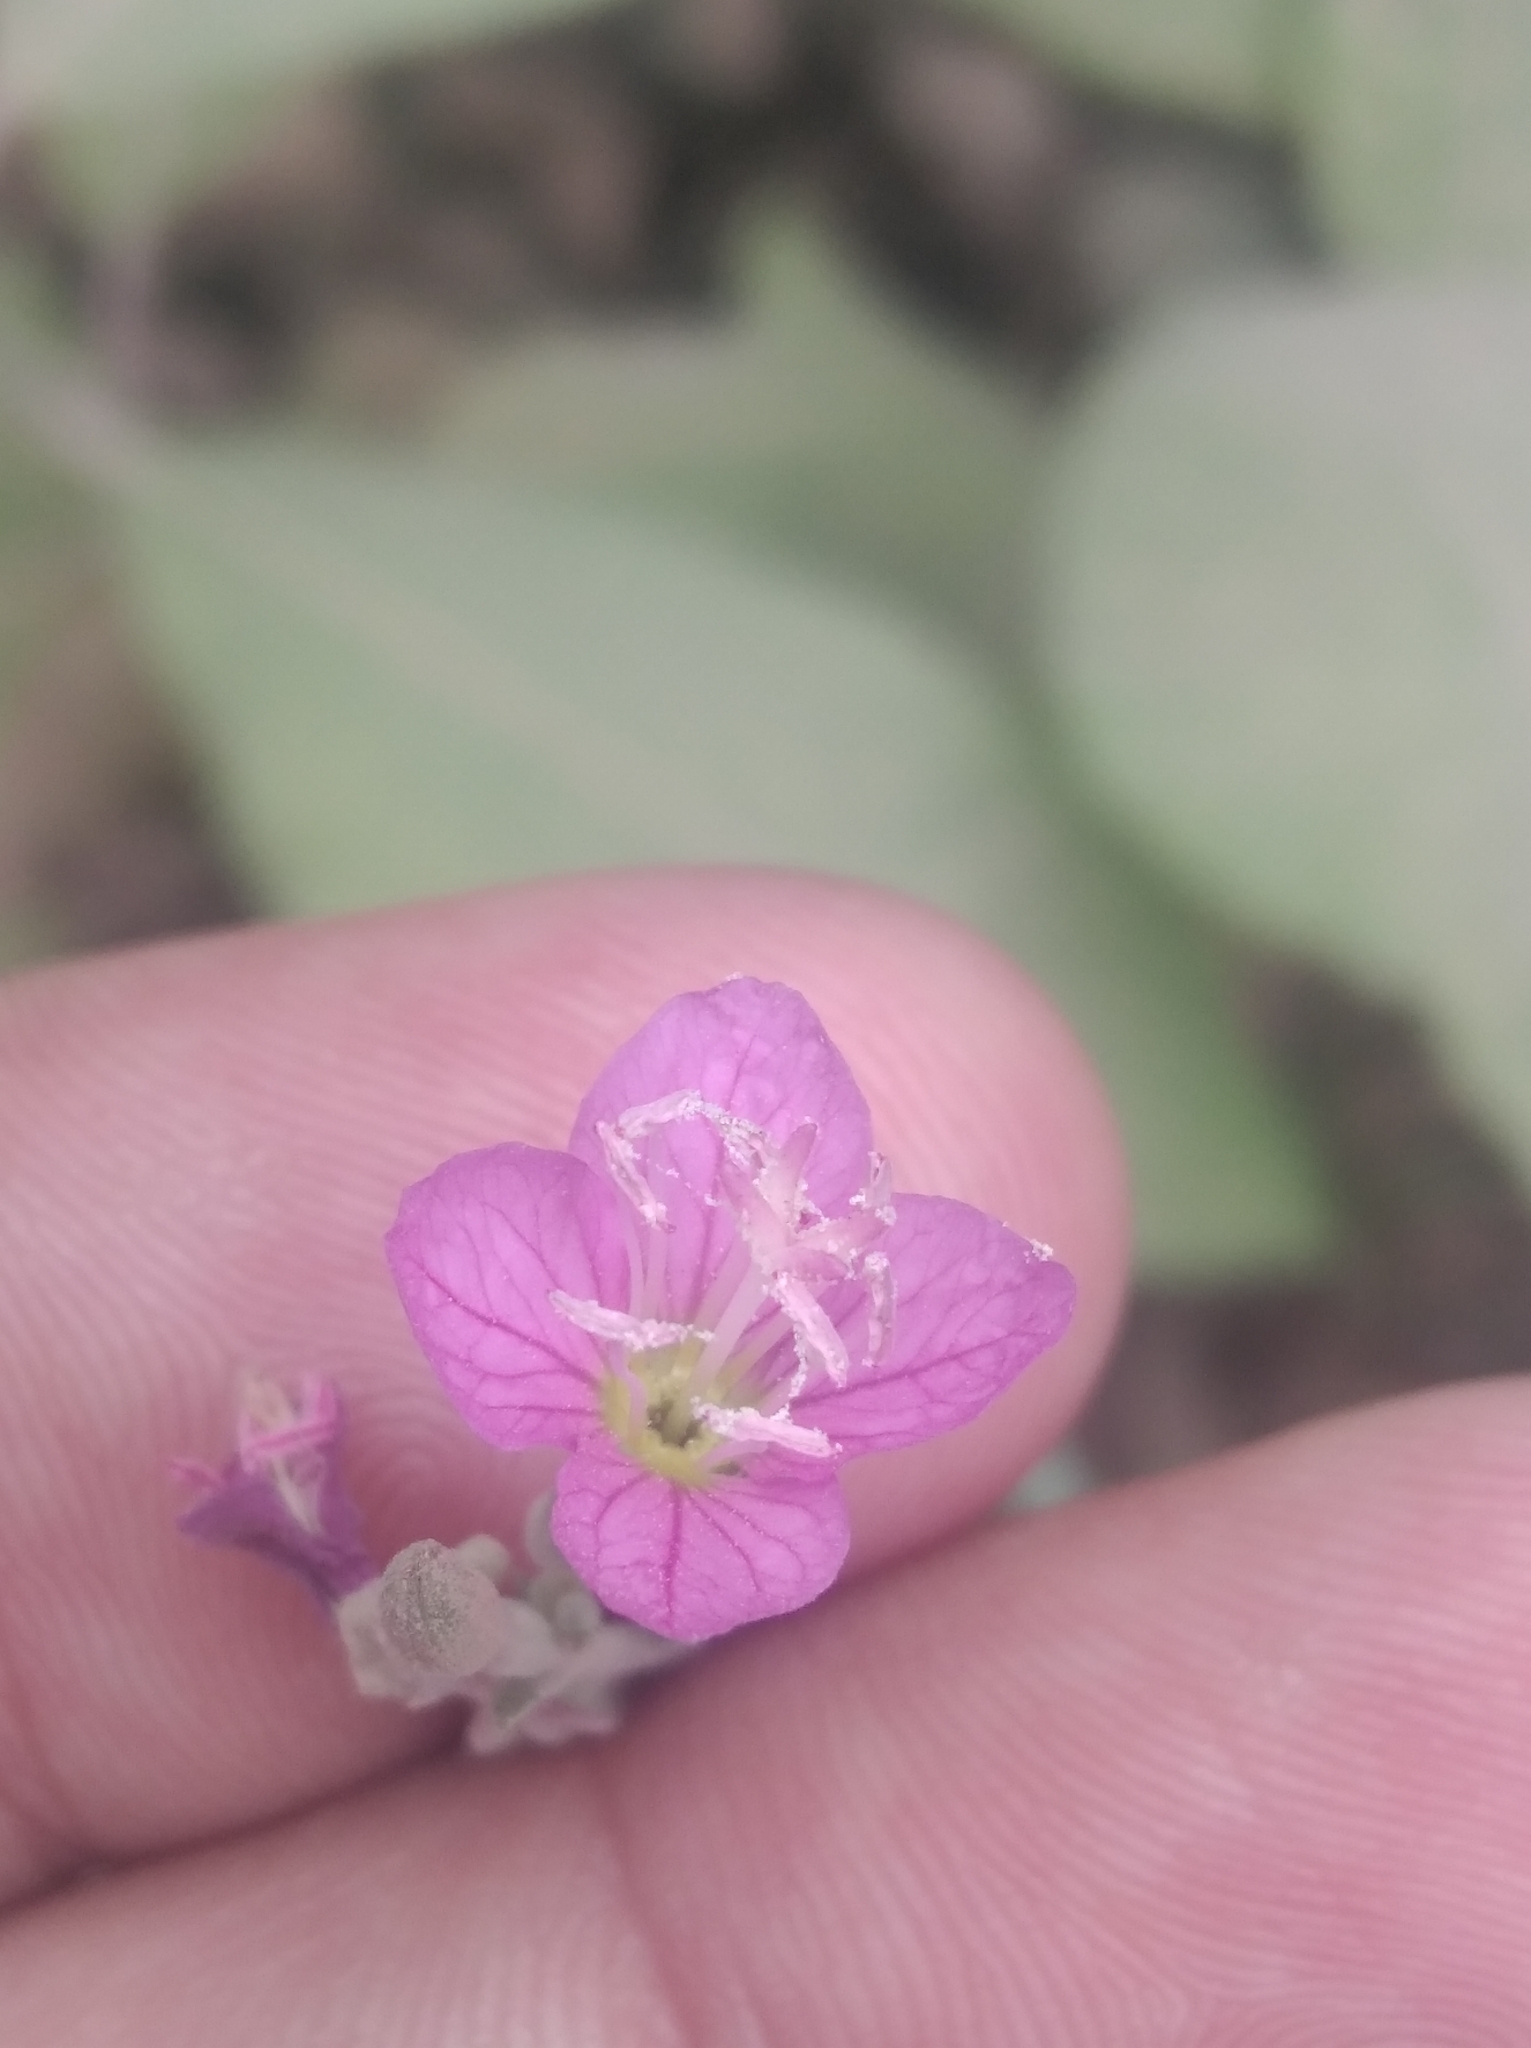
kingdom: Plantae
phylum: Tracheophyta
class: Magnoliopsida
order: Myrtales
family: Onagraceae
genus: Oenothera
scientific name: Oenothera rosea
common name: Rosy evening-primrose
